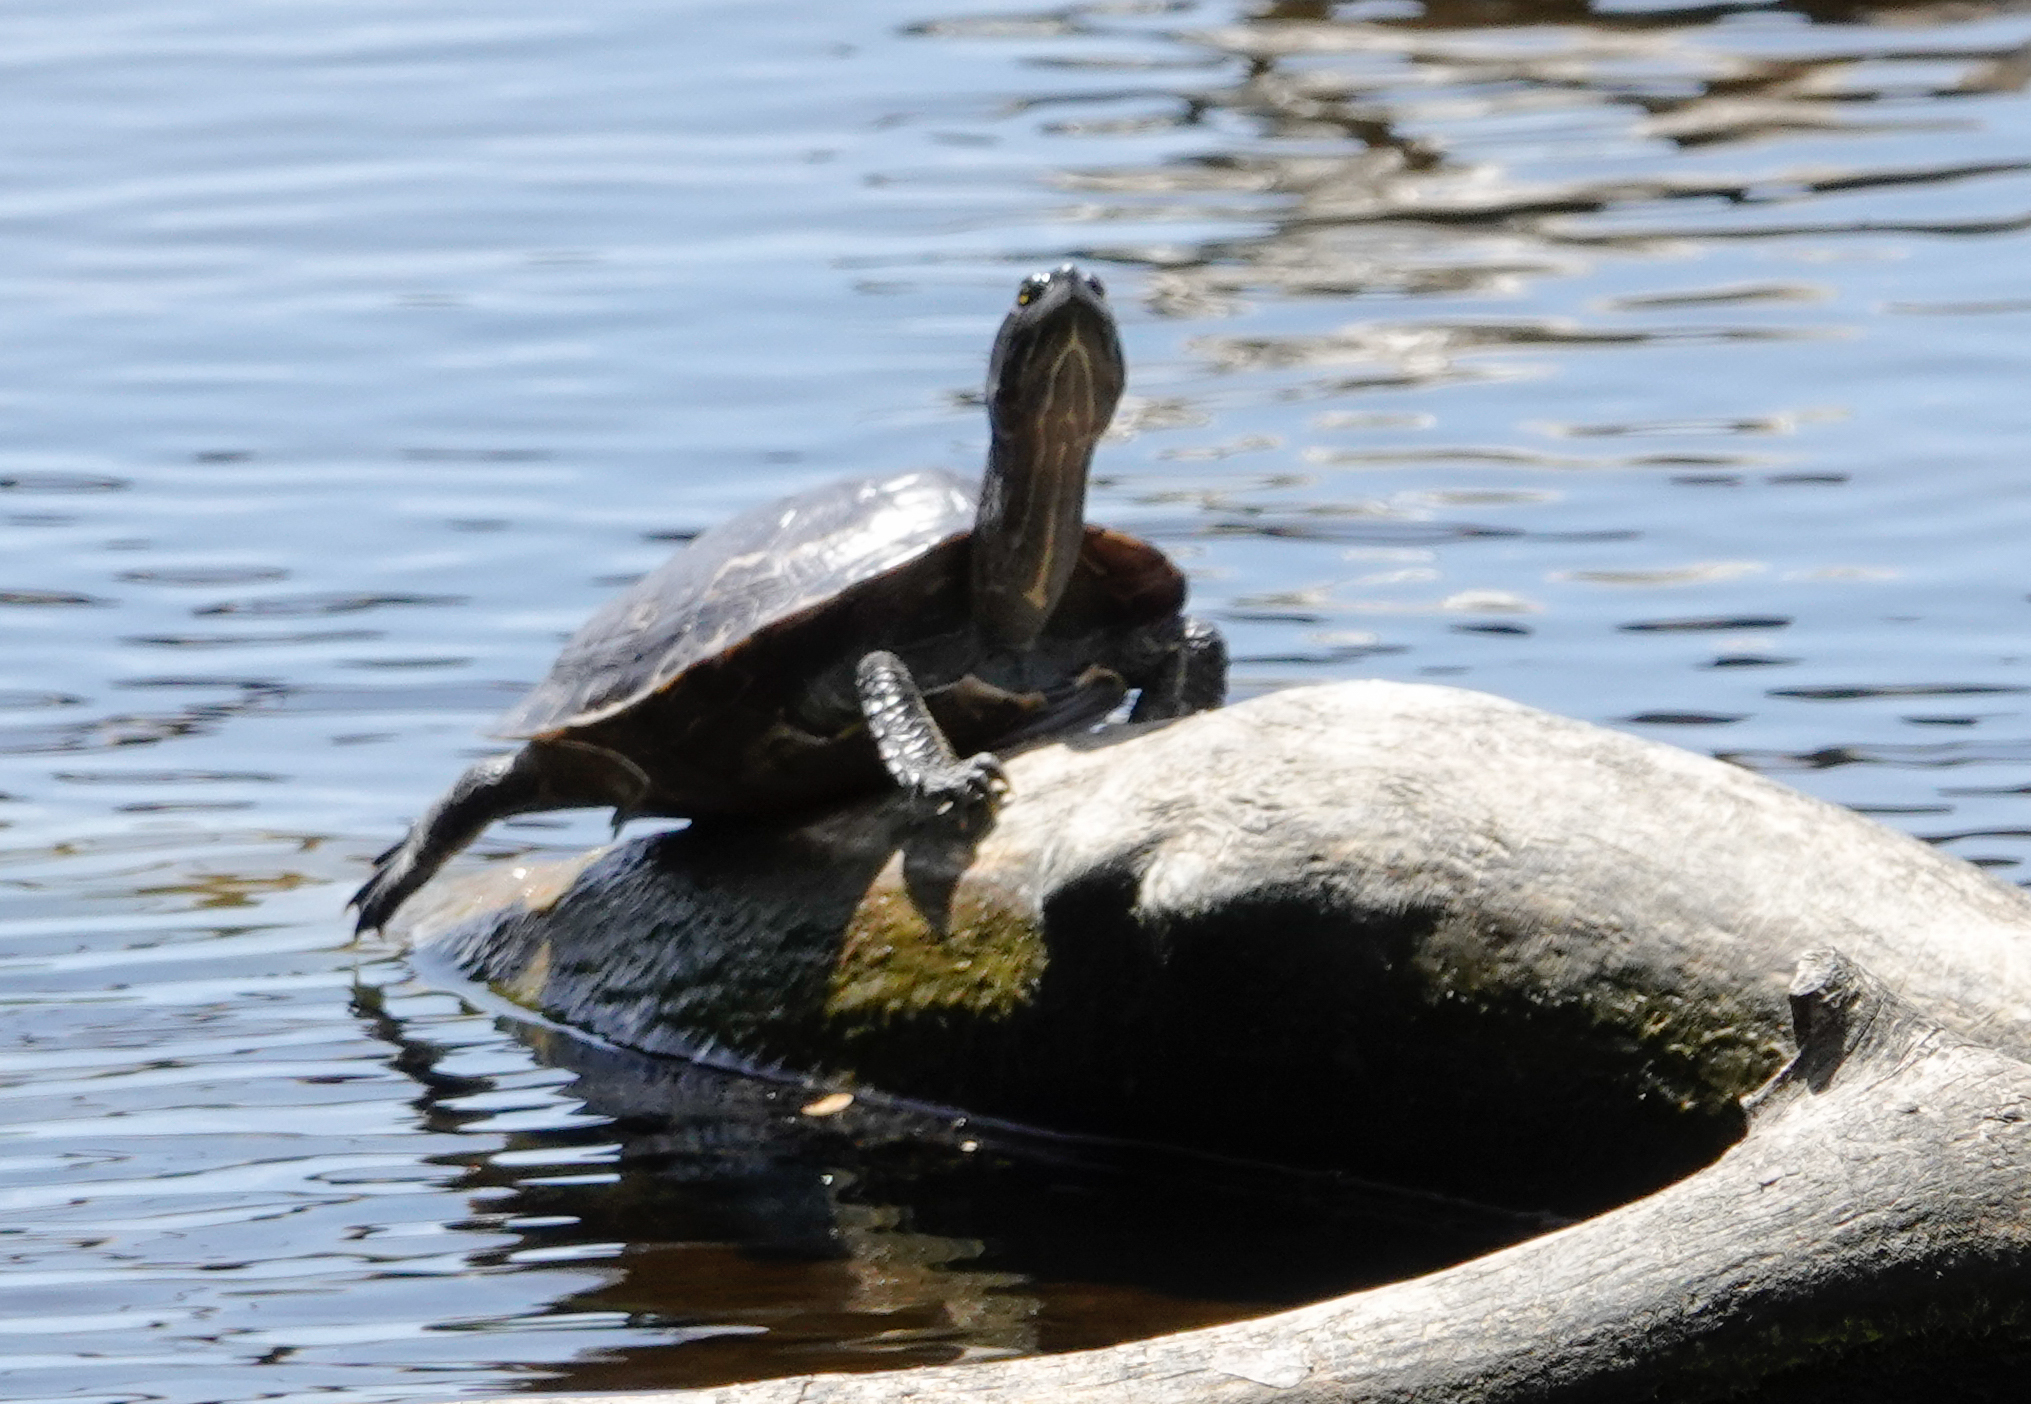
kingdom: Animalia
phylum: Chordata
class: Testudines
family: Emydidae
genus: Trachemys
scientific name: Trachemys stejnegeri
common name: Puerto rican slider
